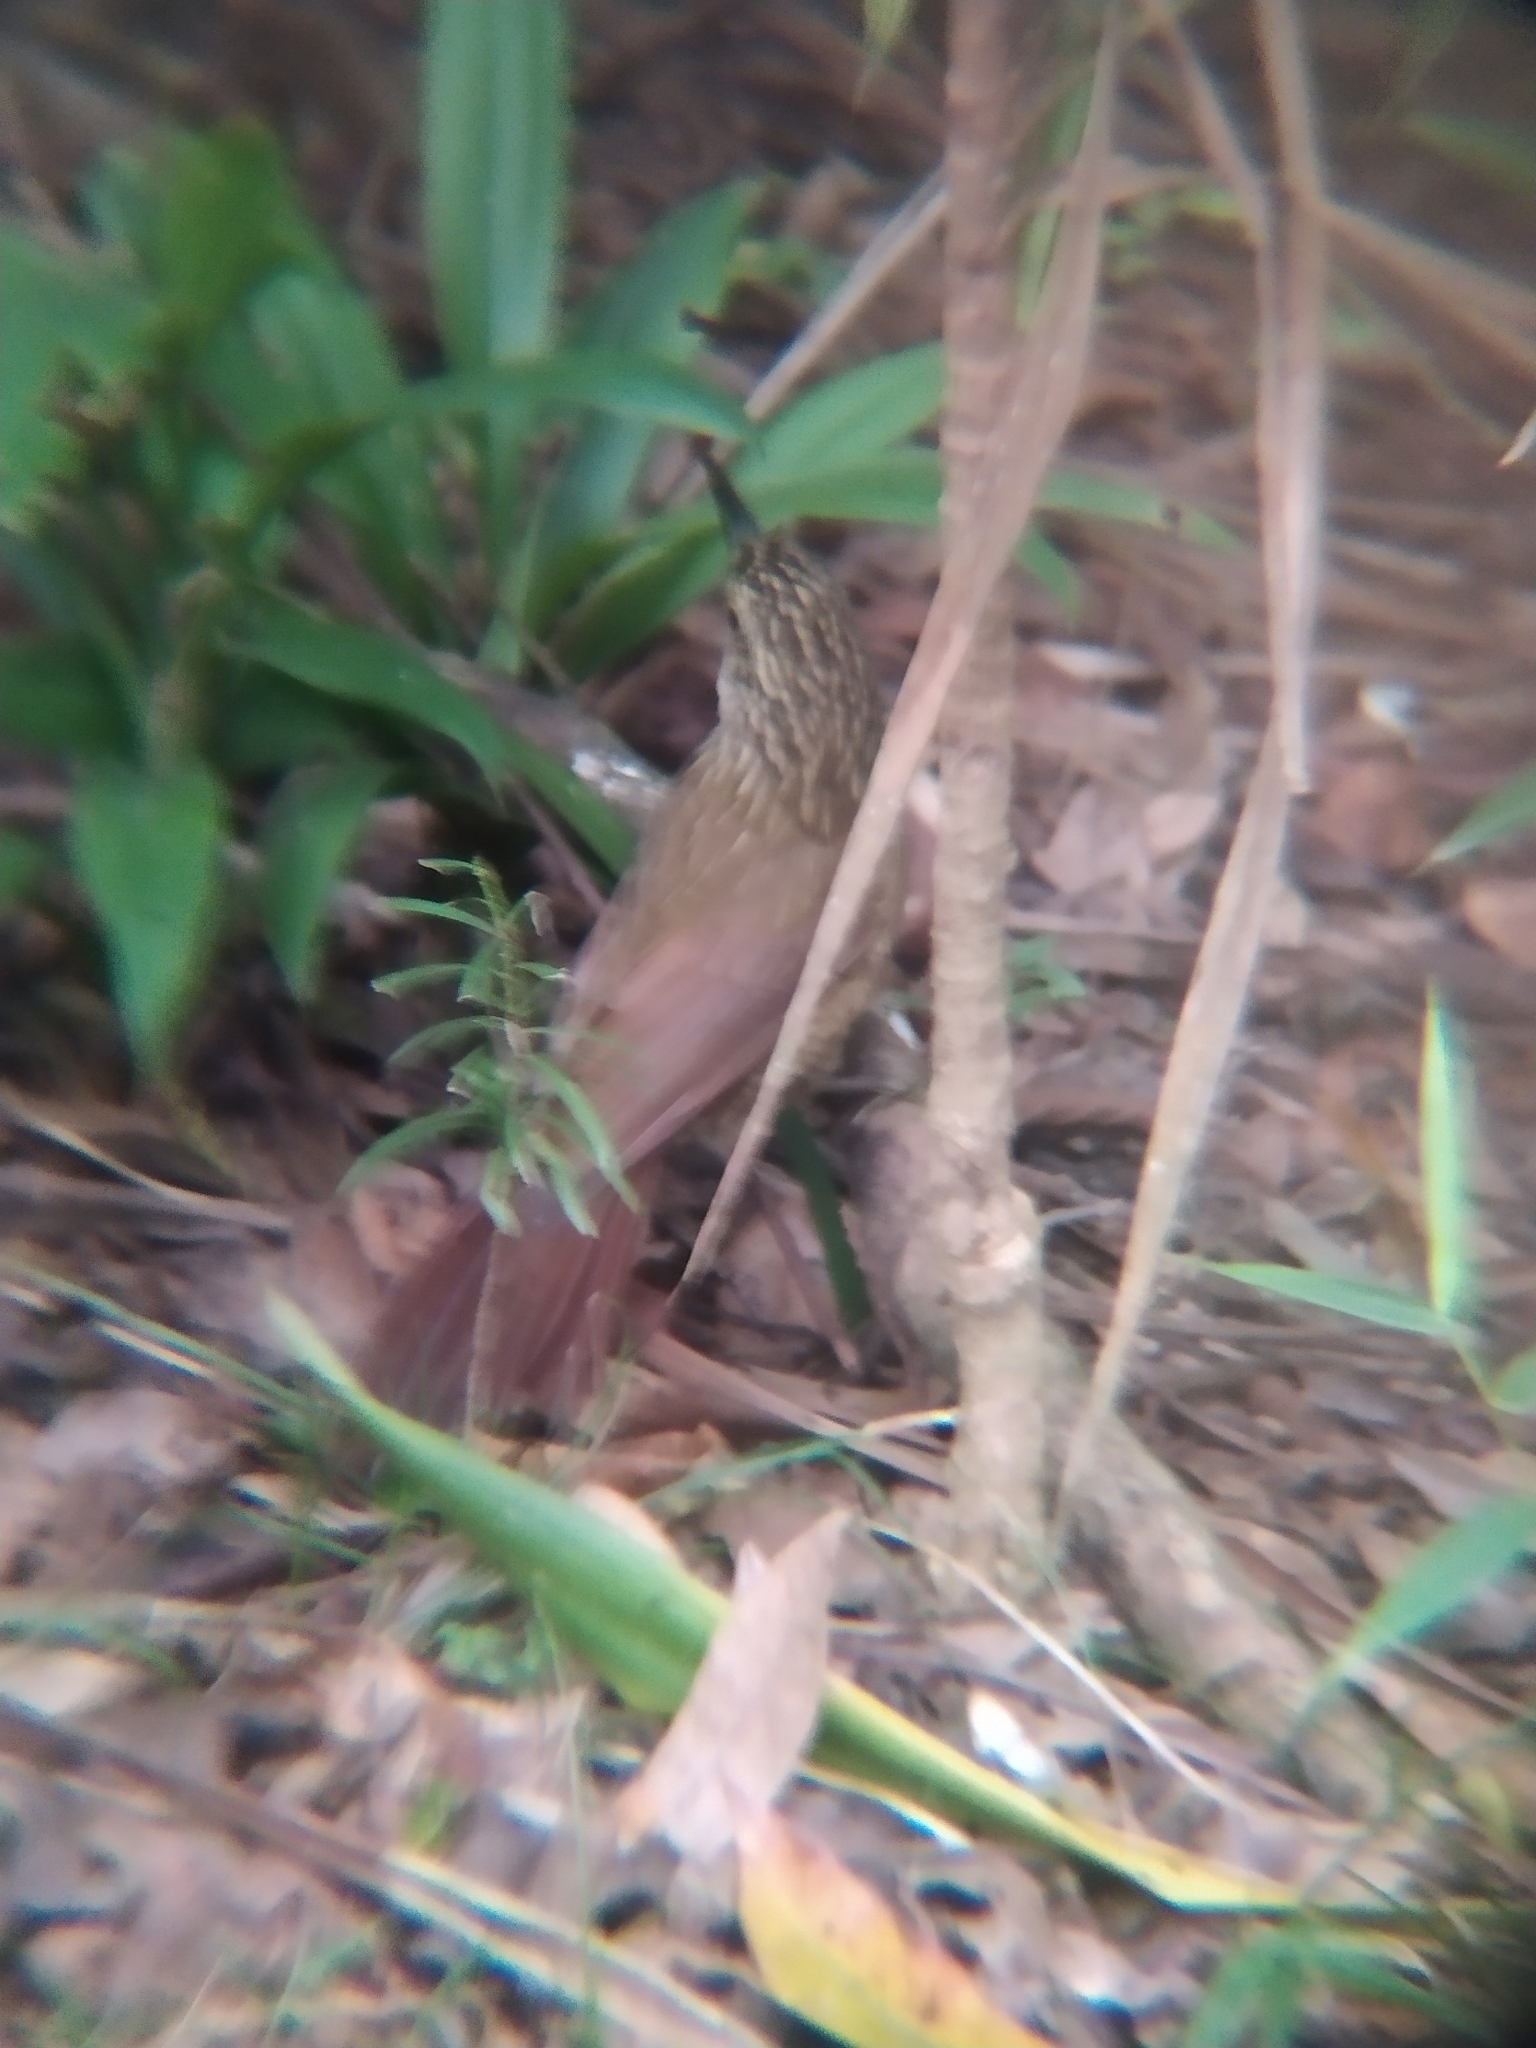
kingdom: Animalia
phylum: Chordata
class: Aves
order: Passeriformes
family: Furnariidae
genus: Dendrocolaptes
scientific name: Dendrocolaptes platyrostris
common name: Planalto woodcreeper
